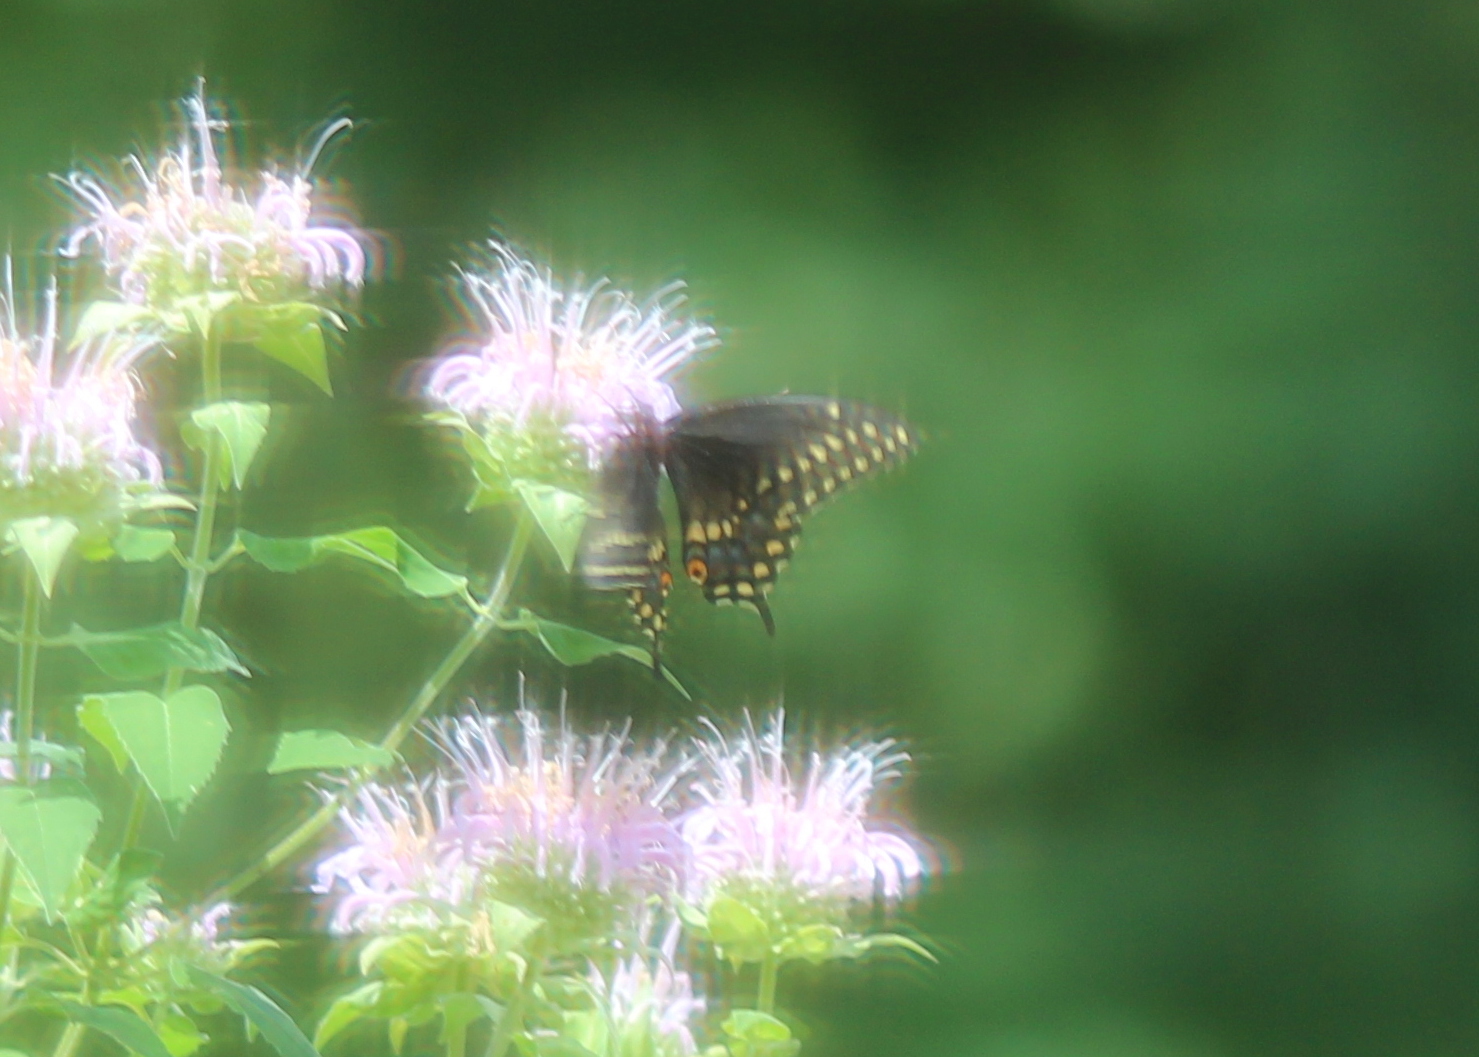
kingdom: Animalia
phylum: Arthropoda
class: Insecta
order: Lepidoptera
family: Papilionidae
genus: Papilio
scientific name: Papilio polyxenes
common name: Black swallowtail
